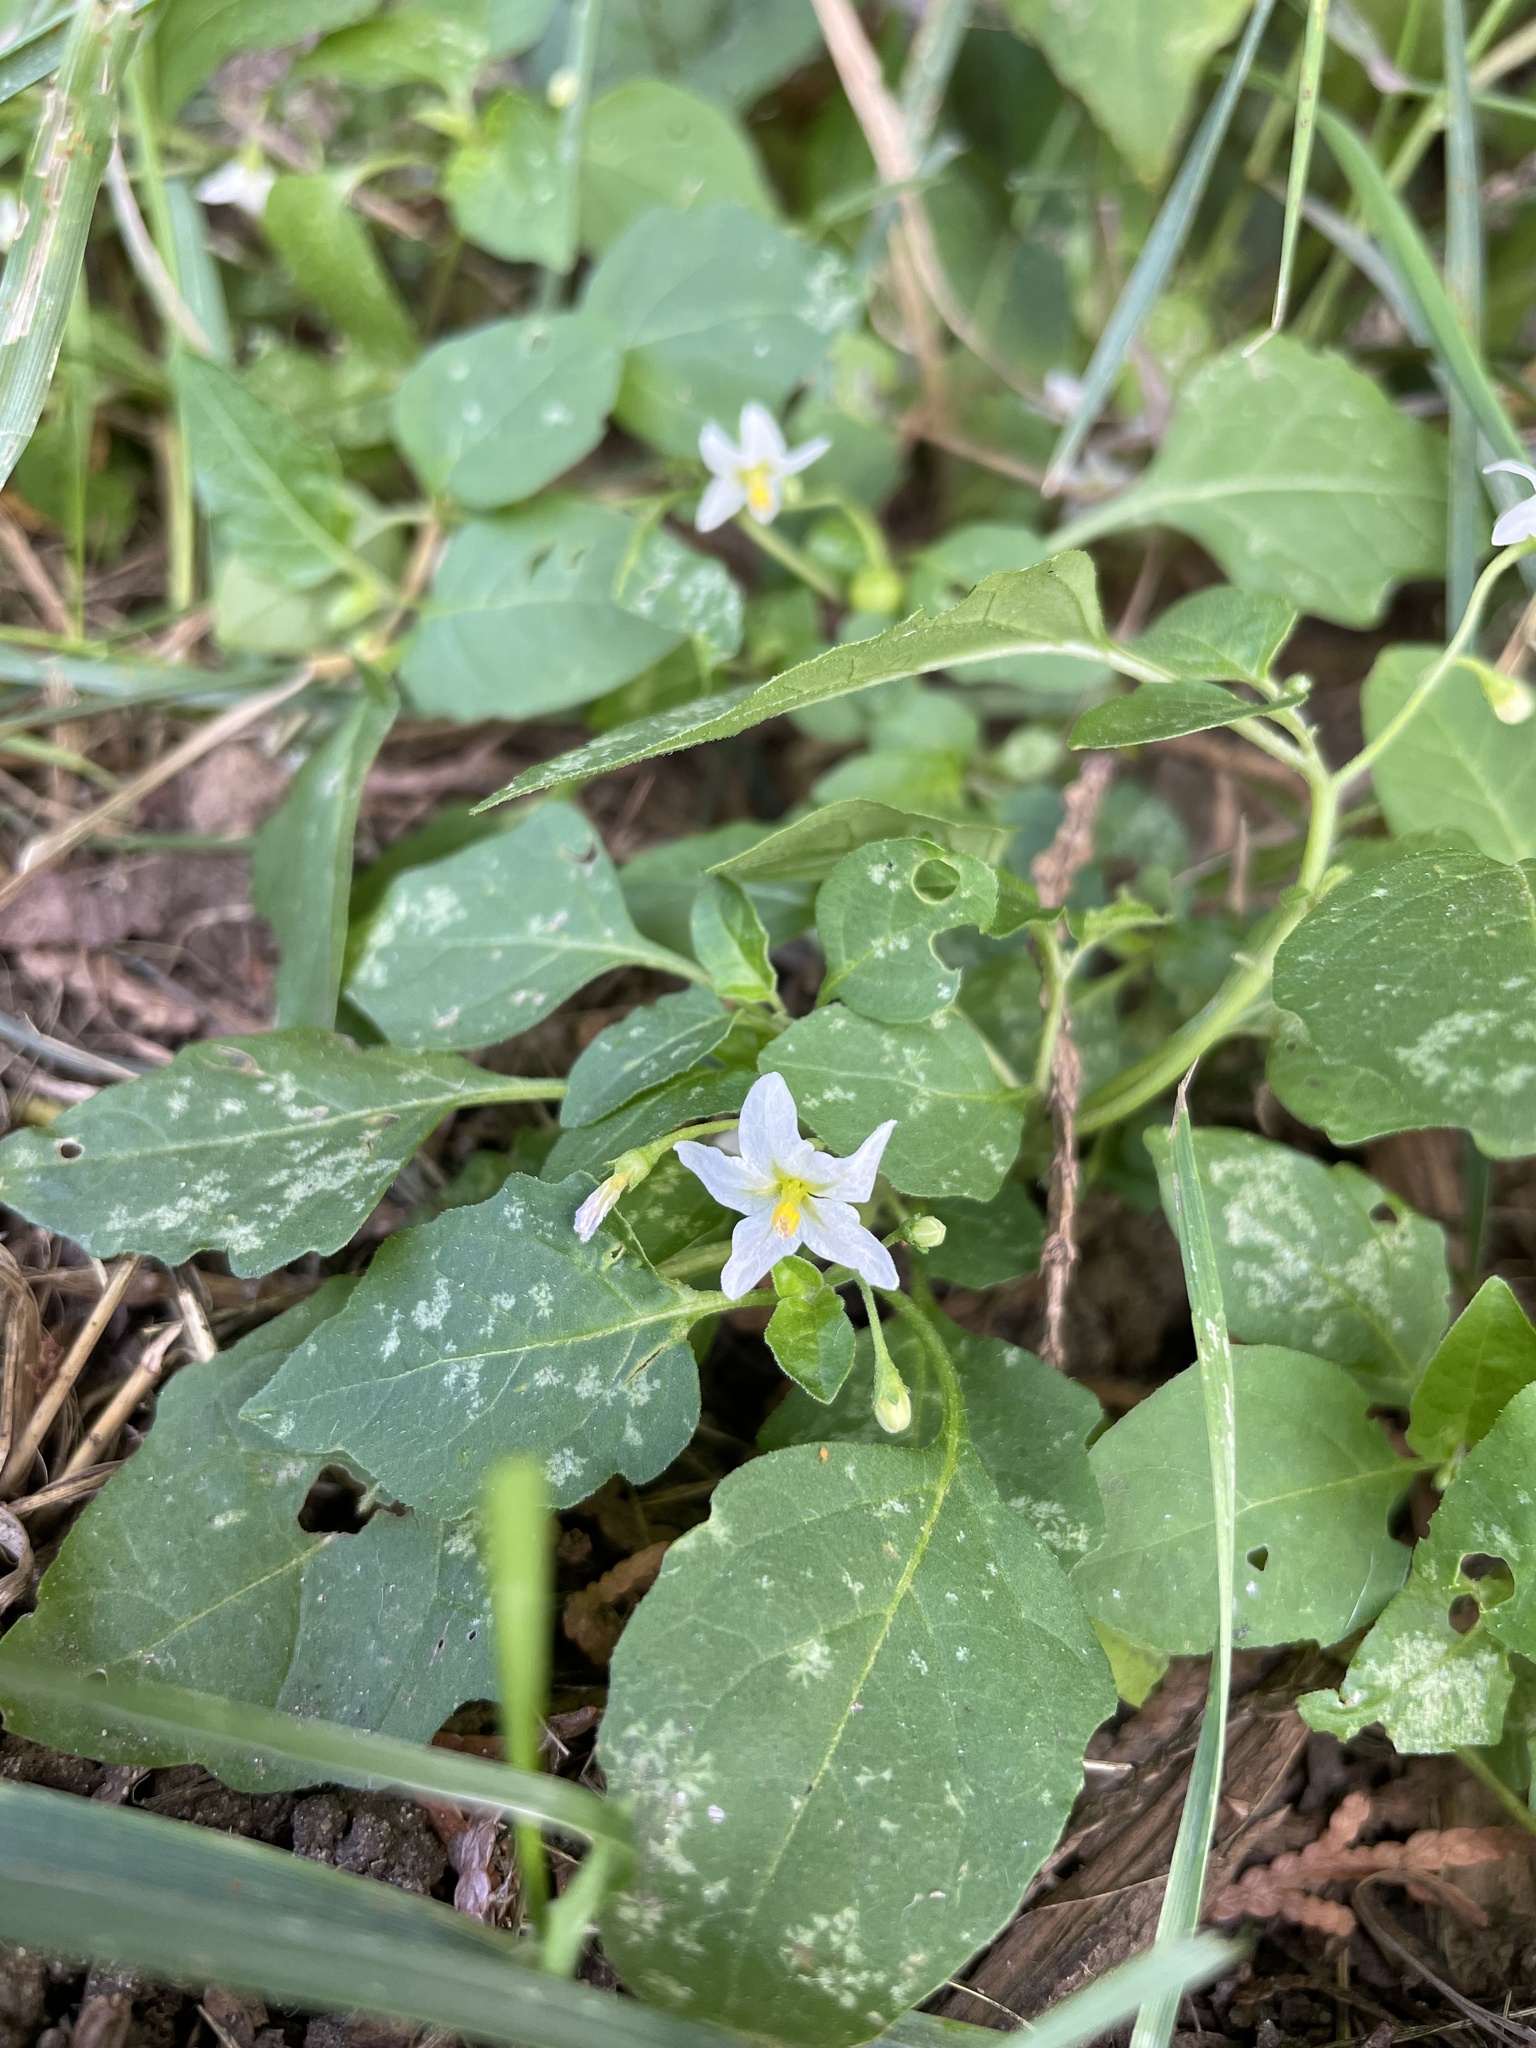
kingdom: Plantae
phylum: Tracheophyta
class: Magnoliopsida
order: Solanales
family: Solanaceae
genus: Solanum
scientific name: Solanum emulans
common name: Eastern black nightshade
